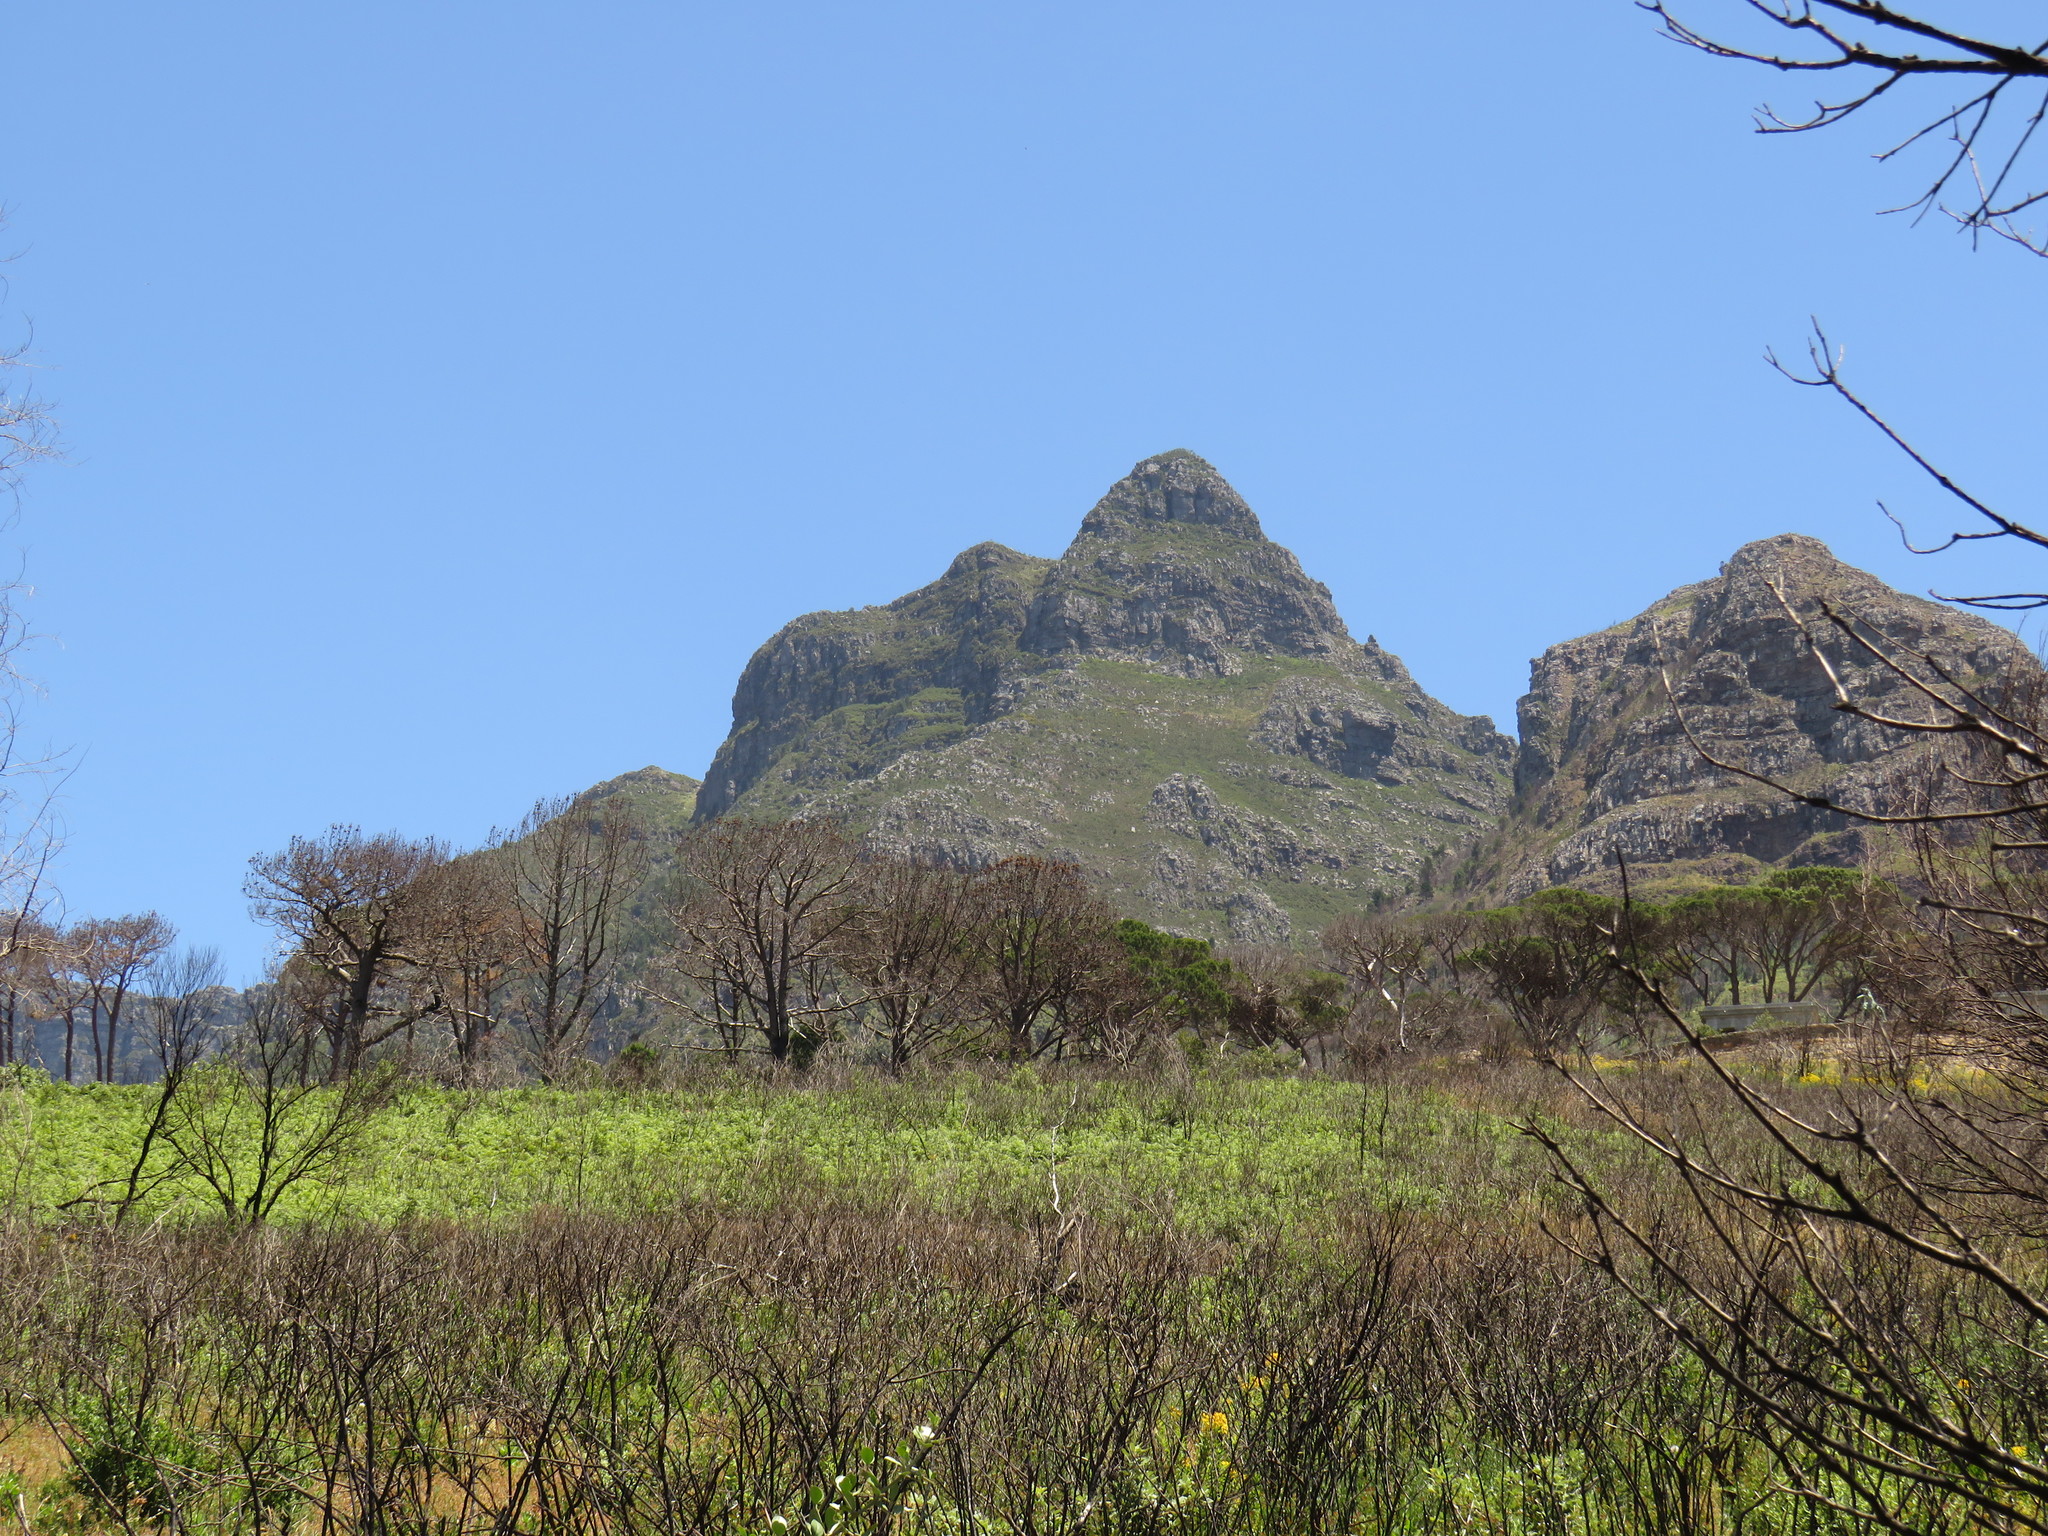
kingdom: Plantae
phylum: Tracheophyta
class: Pinopsida
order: Pinales
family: Pinaceae
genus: Pinus
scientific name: Pinus pinea
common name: Italian stone pine
